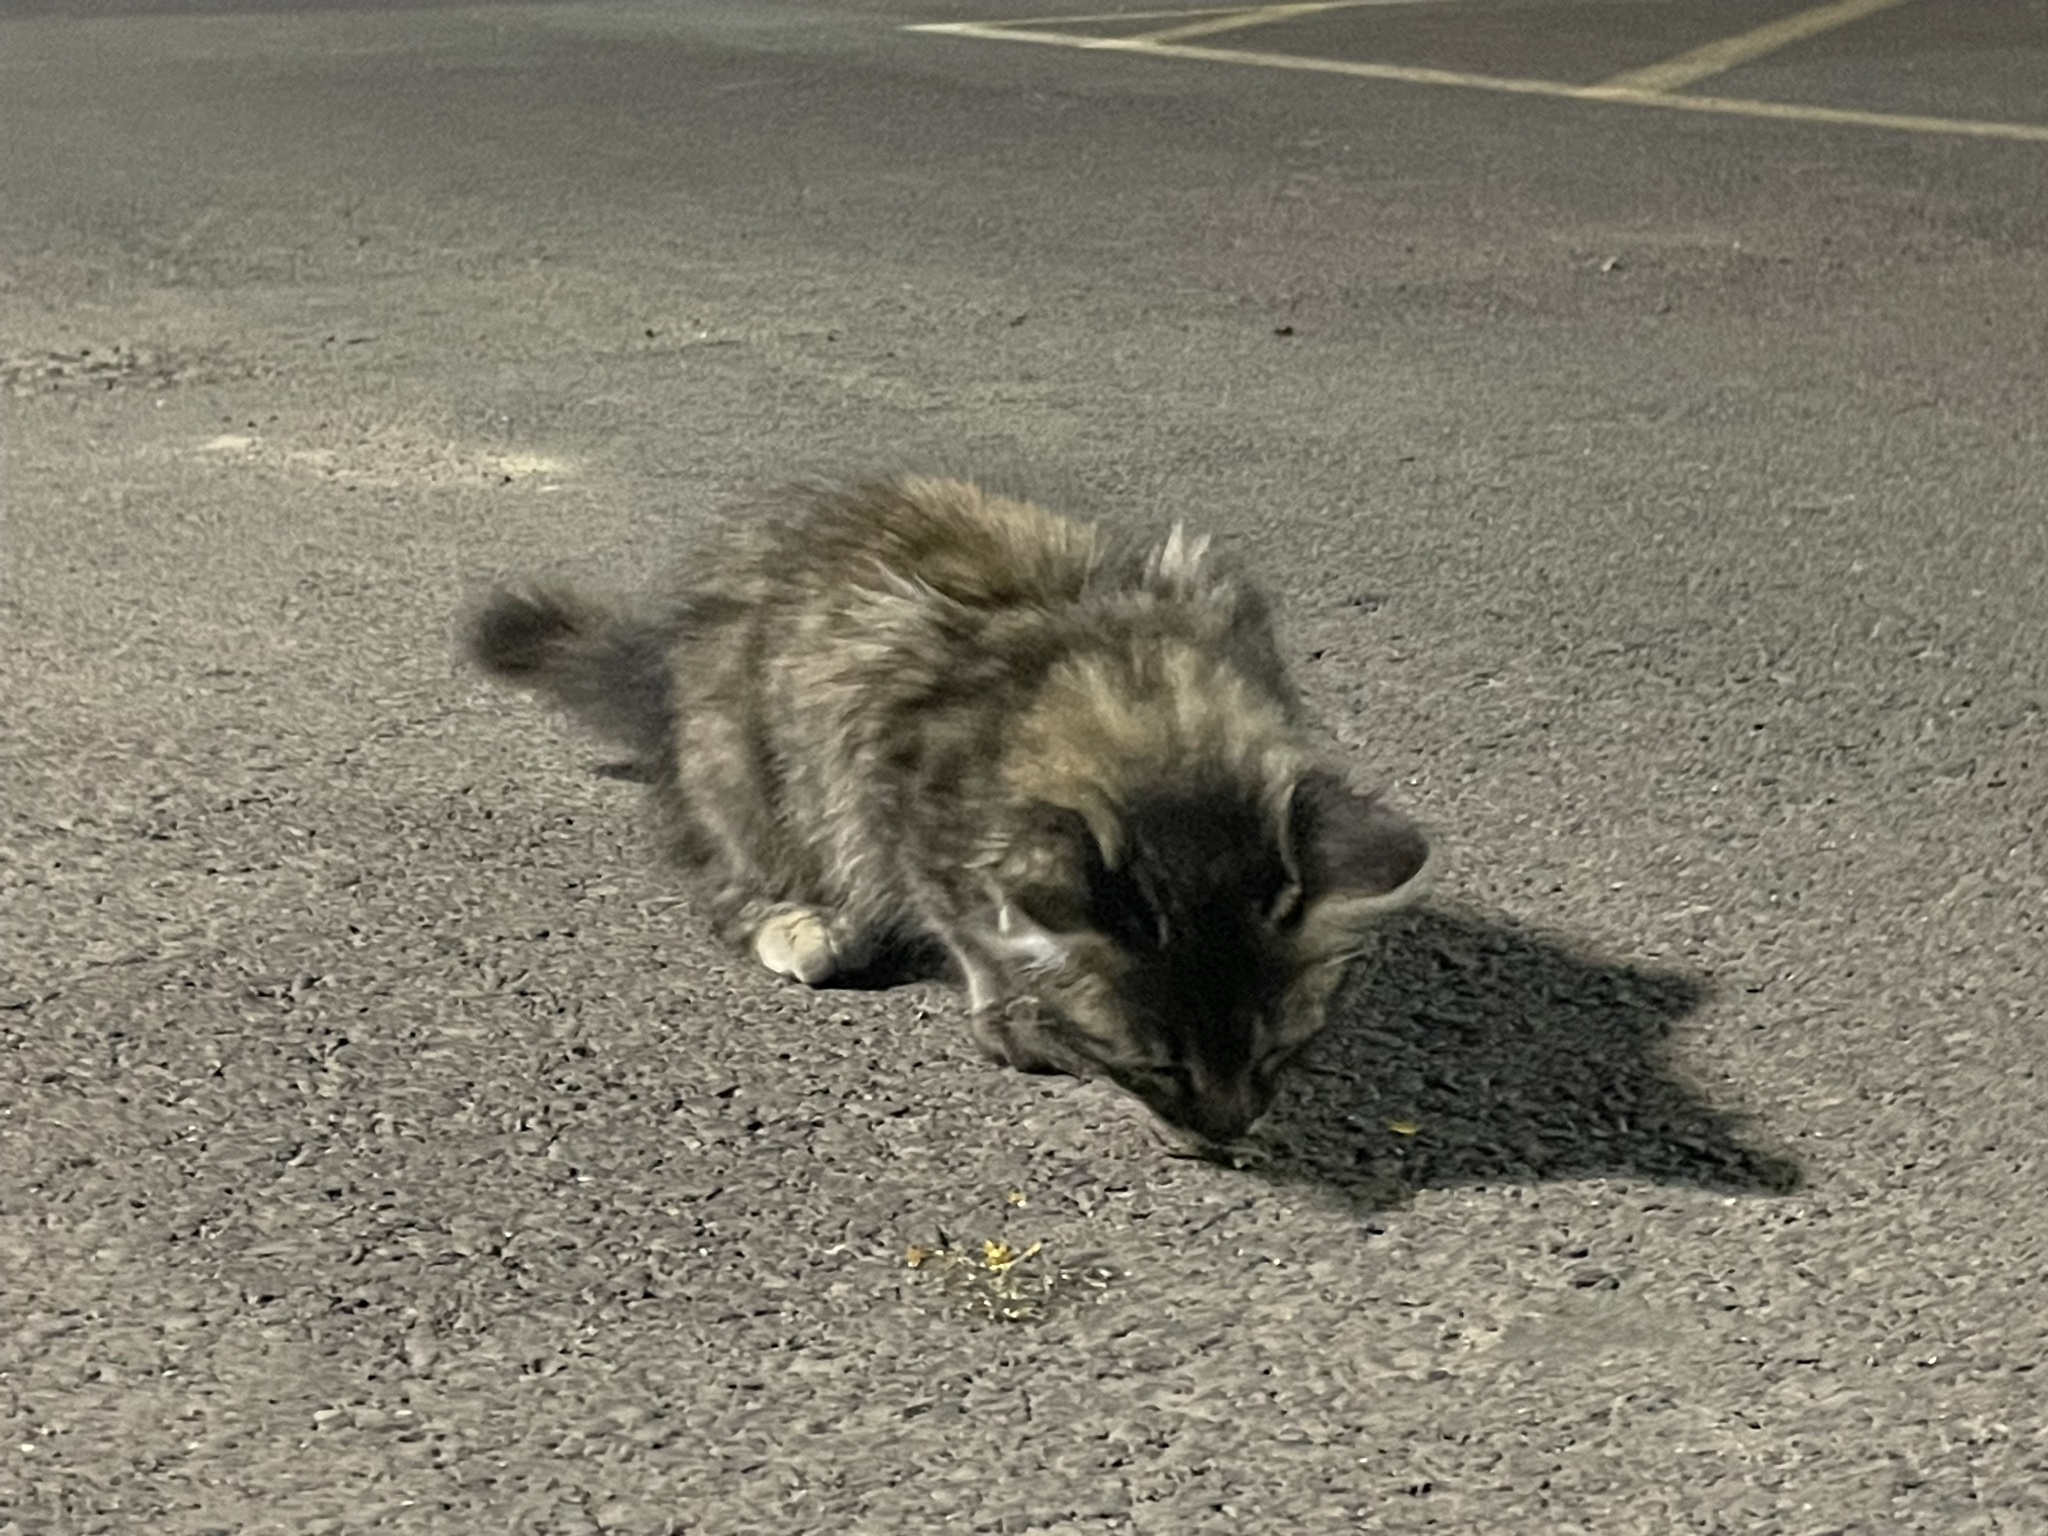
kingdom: Animalia
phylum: Chordata
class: Mammalia
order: Carnivora
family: Felidae
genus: Felis
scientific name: Felis catus
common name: Domestic cat
